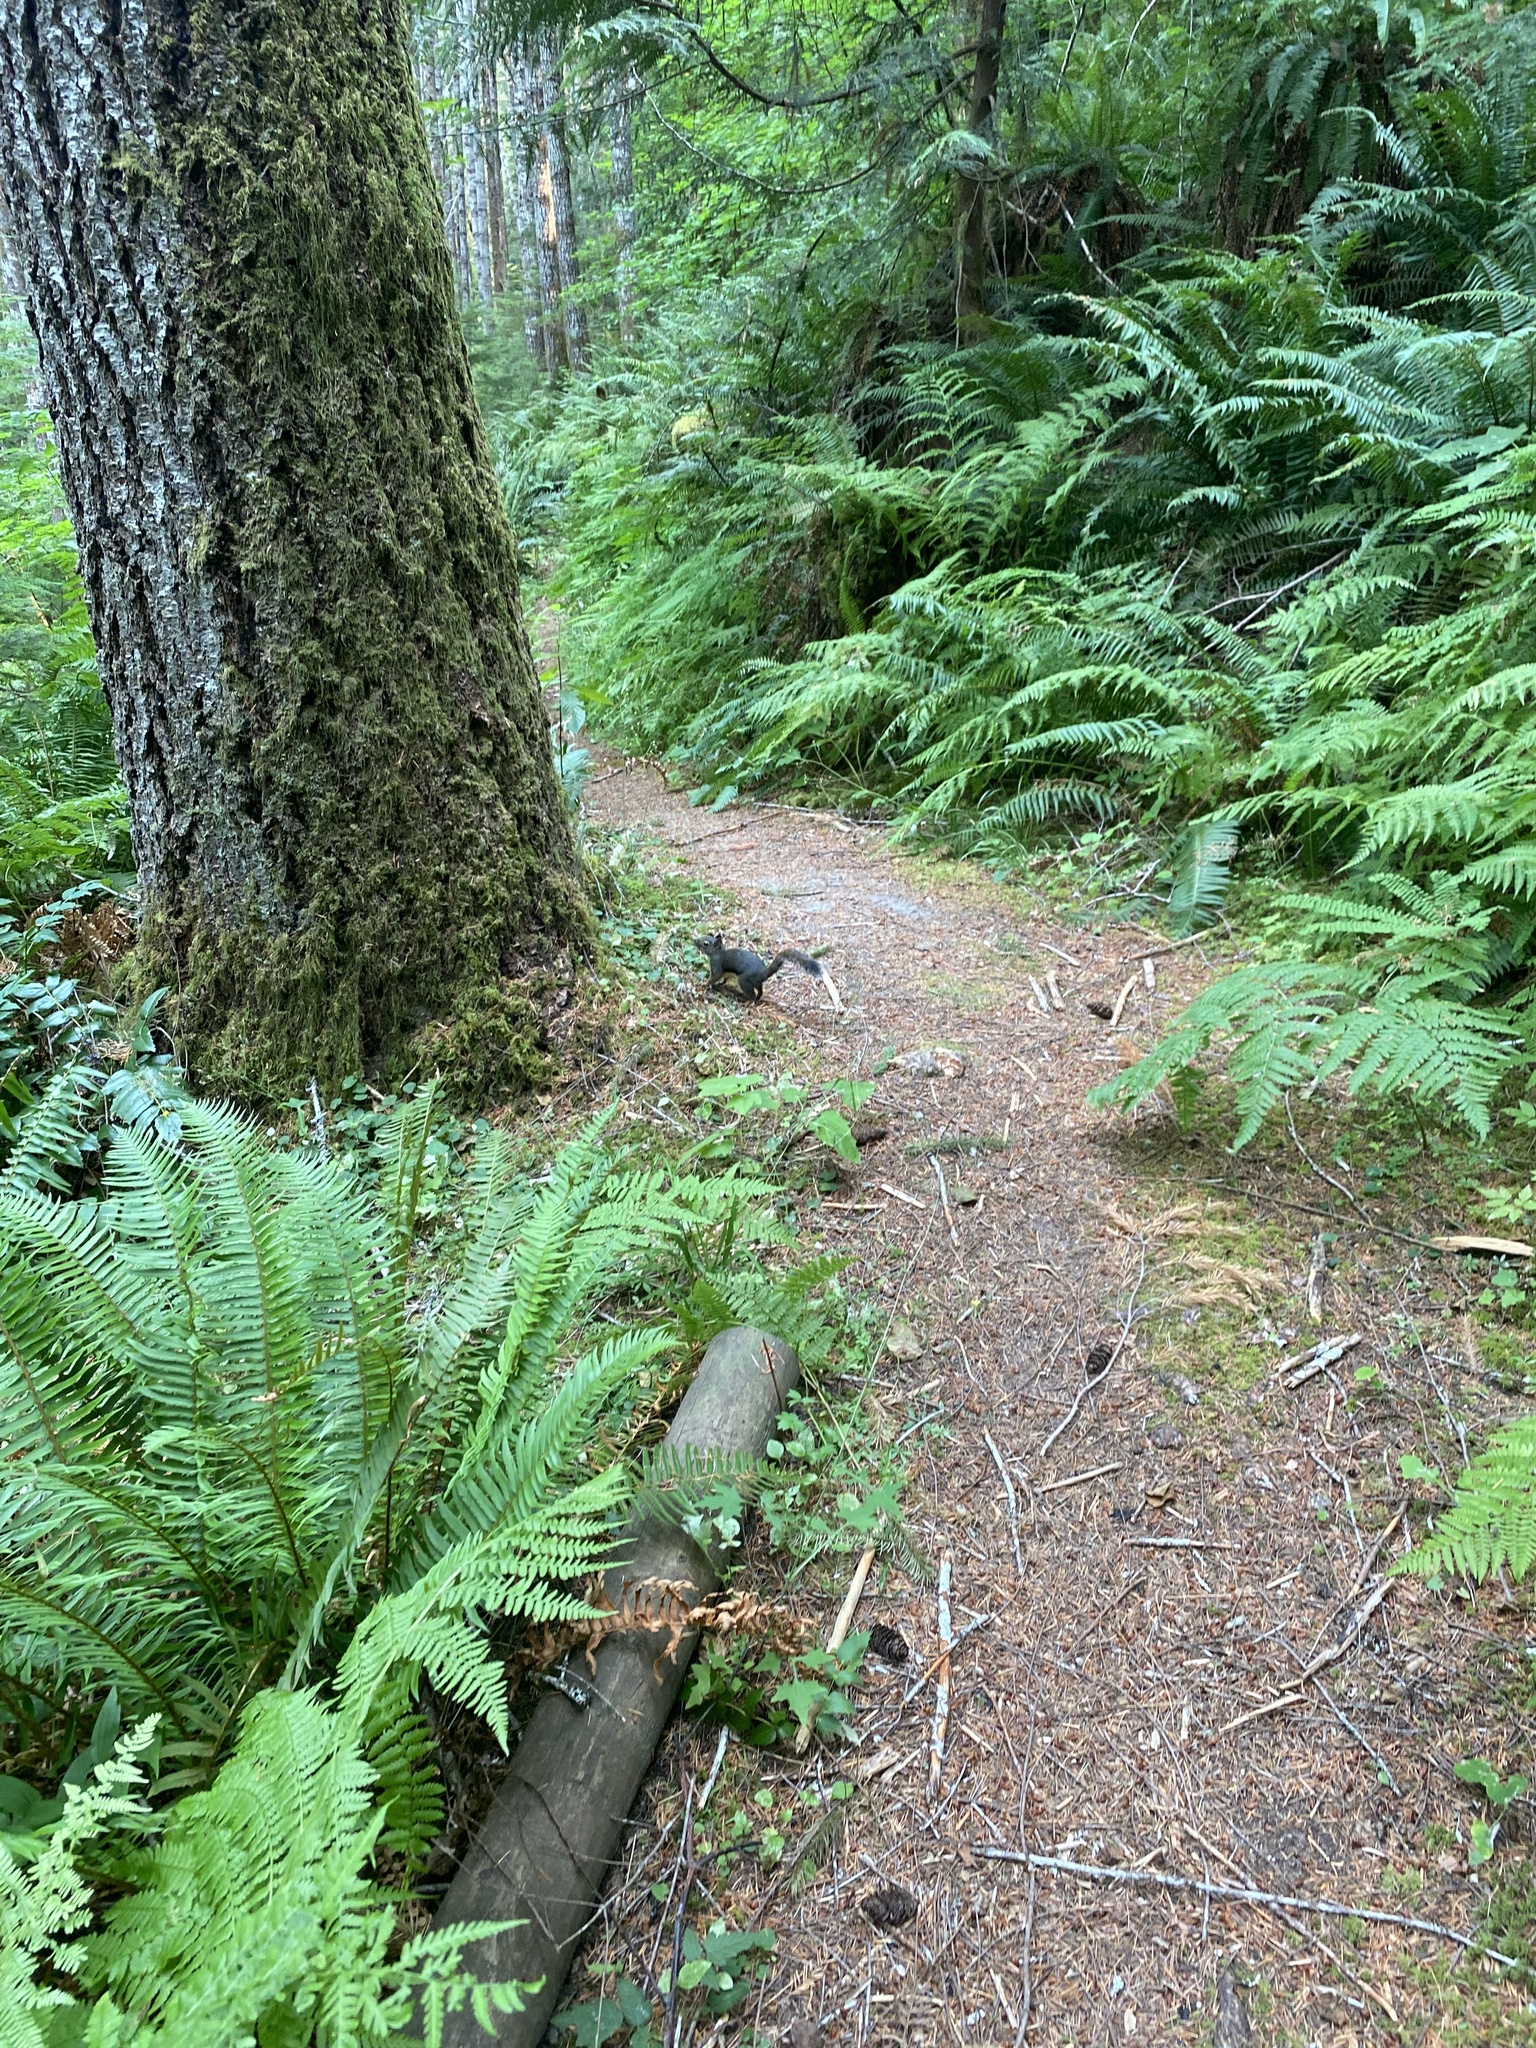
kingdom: Animalia
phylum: Chordata
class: Mammalia
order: Rodentia
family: Sciuridae
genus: Tamiasciurus
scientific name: Tamiasciurus douglasii
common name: Douglas's squirrel
